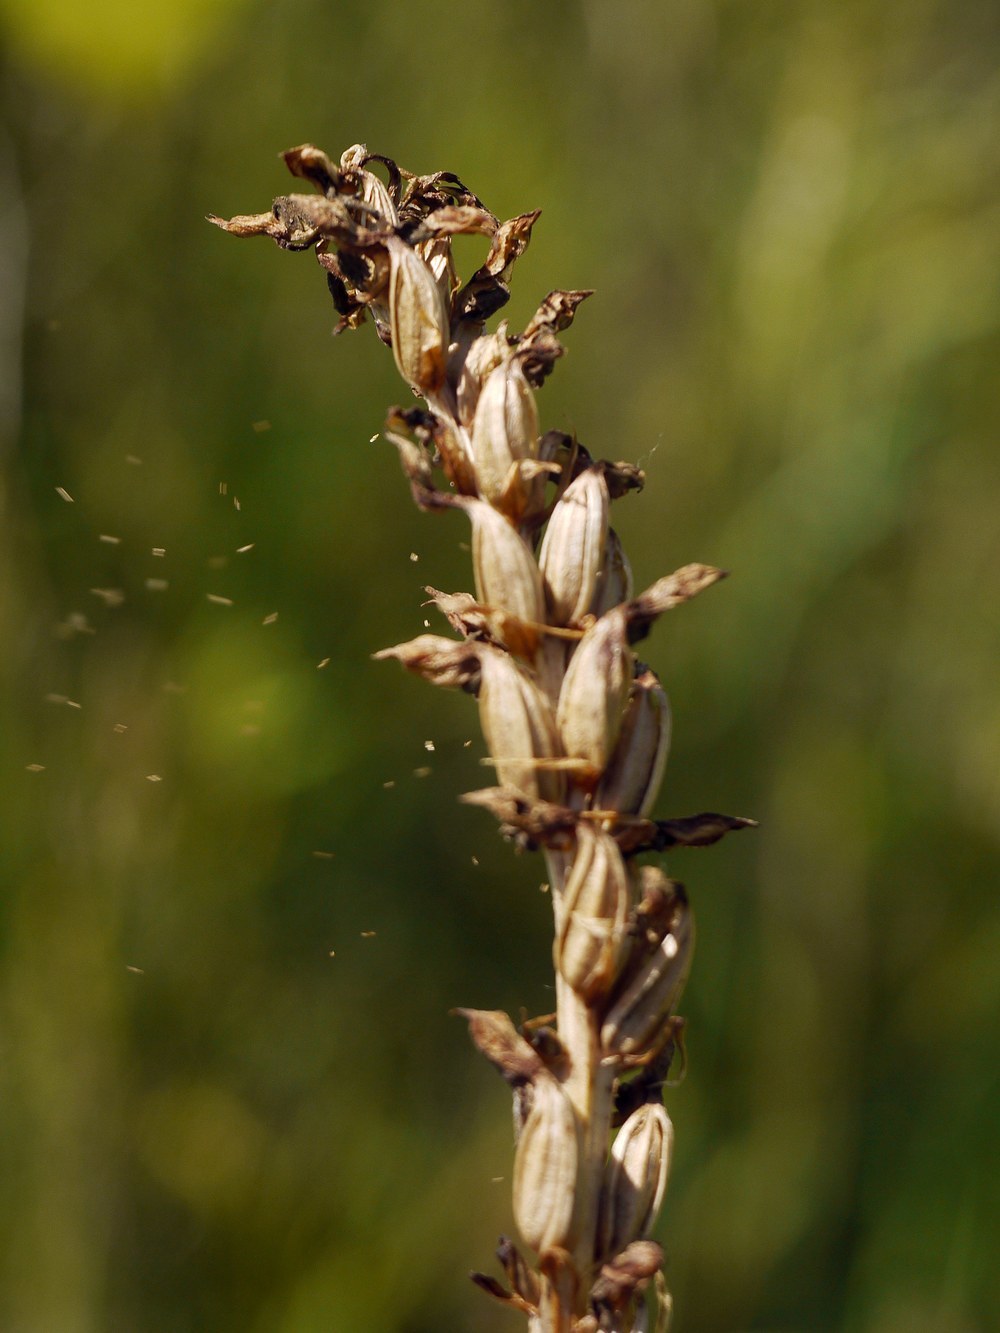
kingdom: Plantae
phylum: Tracheophyta
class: Liliopsida
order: Asparagales
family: Orchidaceae
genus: Anacamptis
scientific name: Anacamptis coriophora
